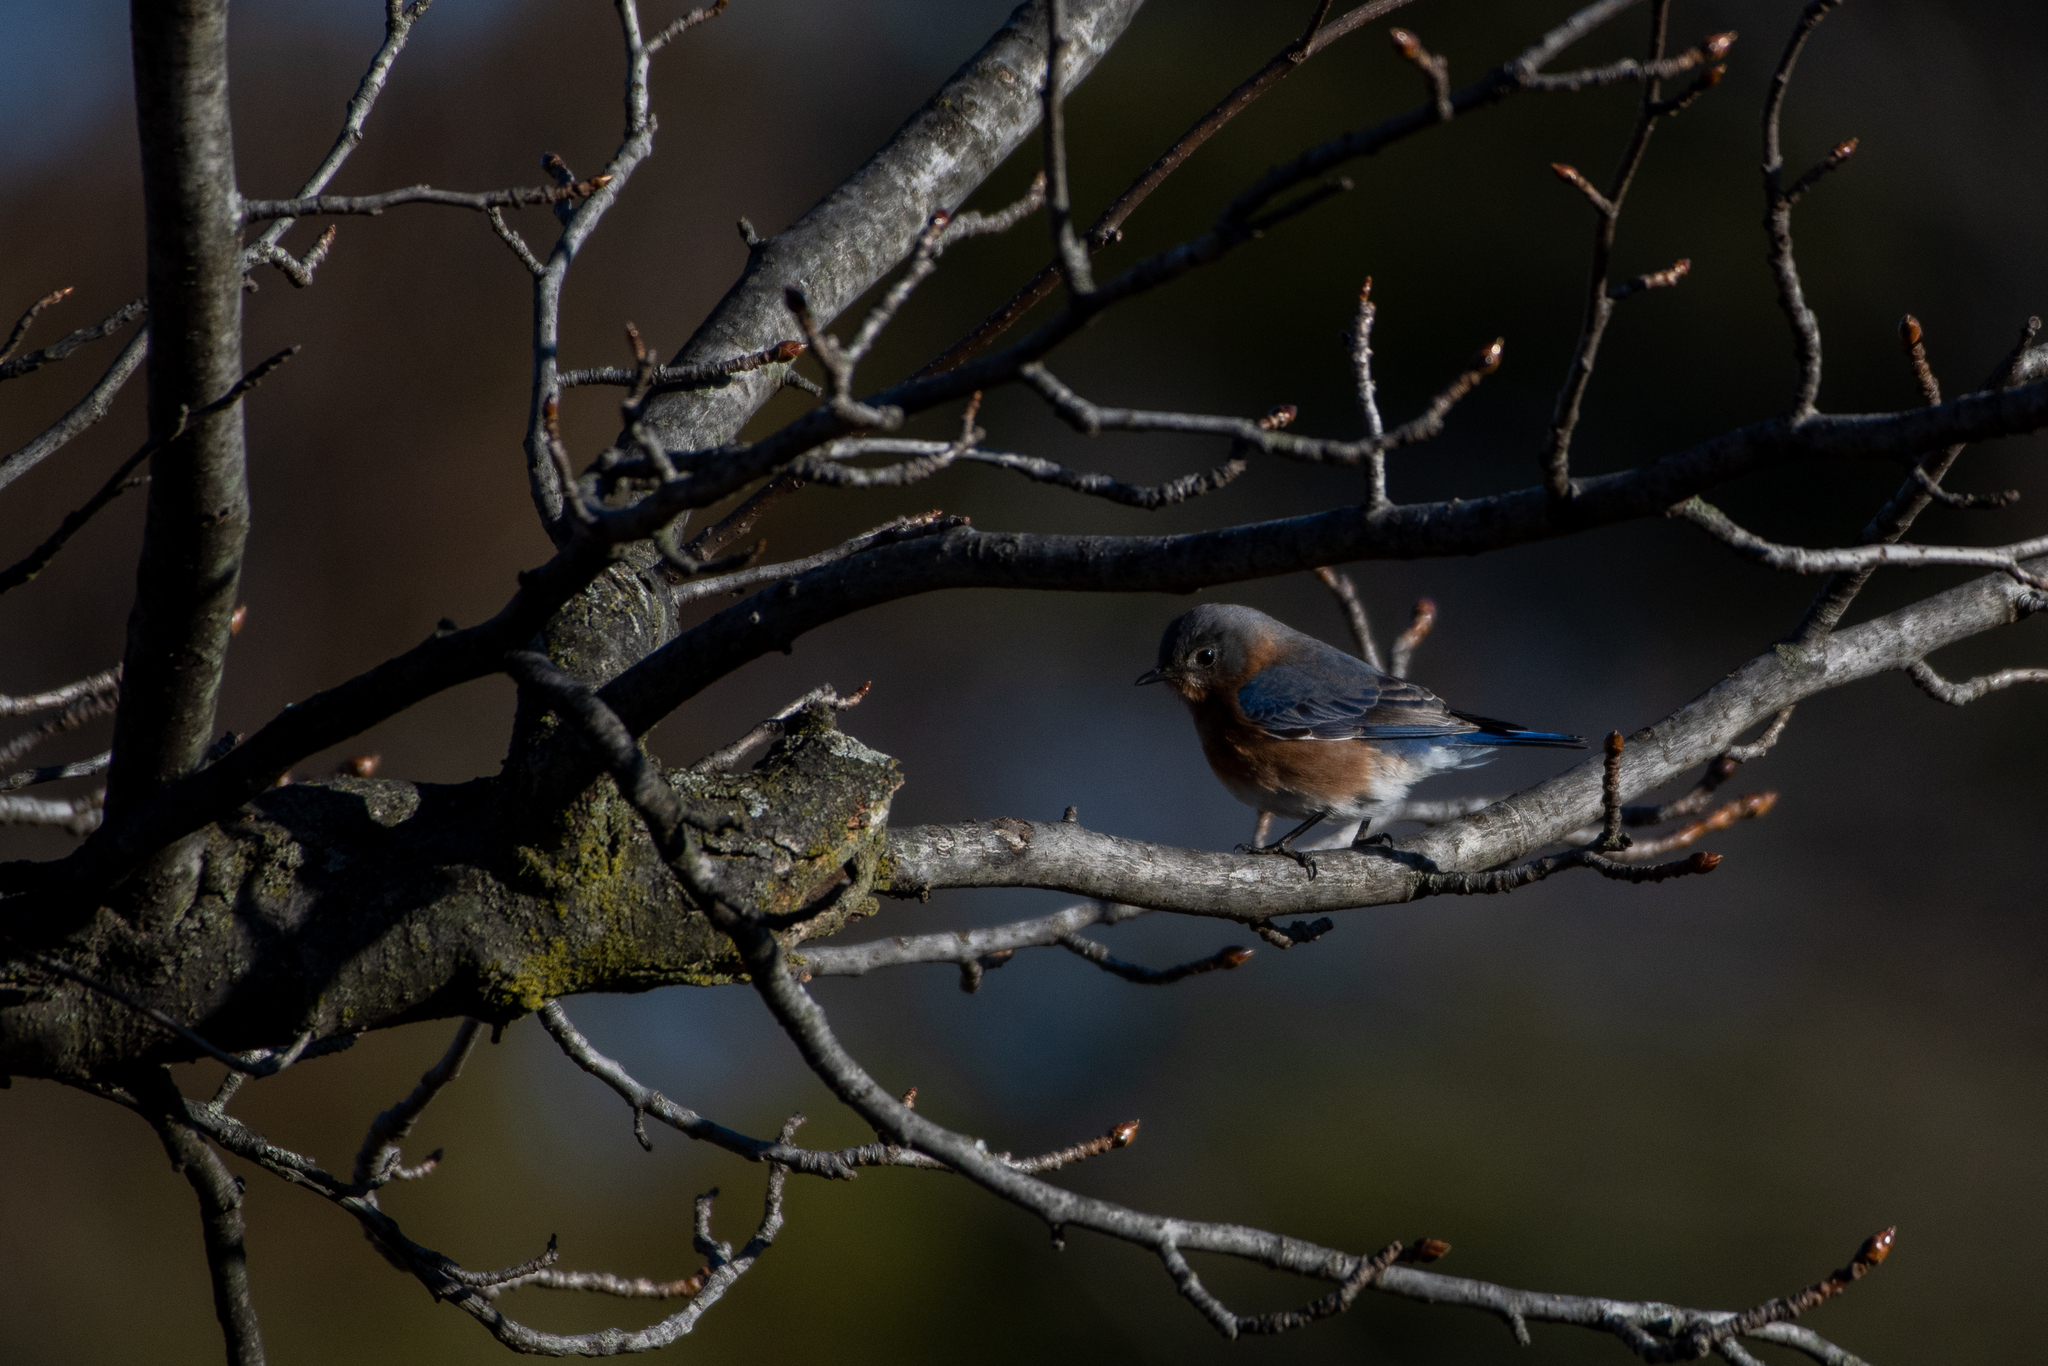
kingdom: Animalia
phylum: Chordata
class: Aves
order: Passeriformes
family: Turdidae
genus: Sialia
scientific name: Sialia sialis
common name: Eastern bluebird
